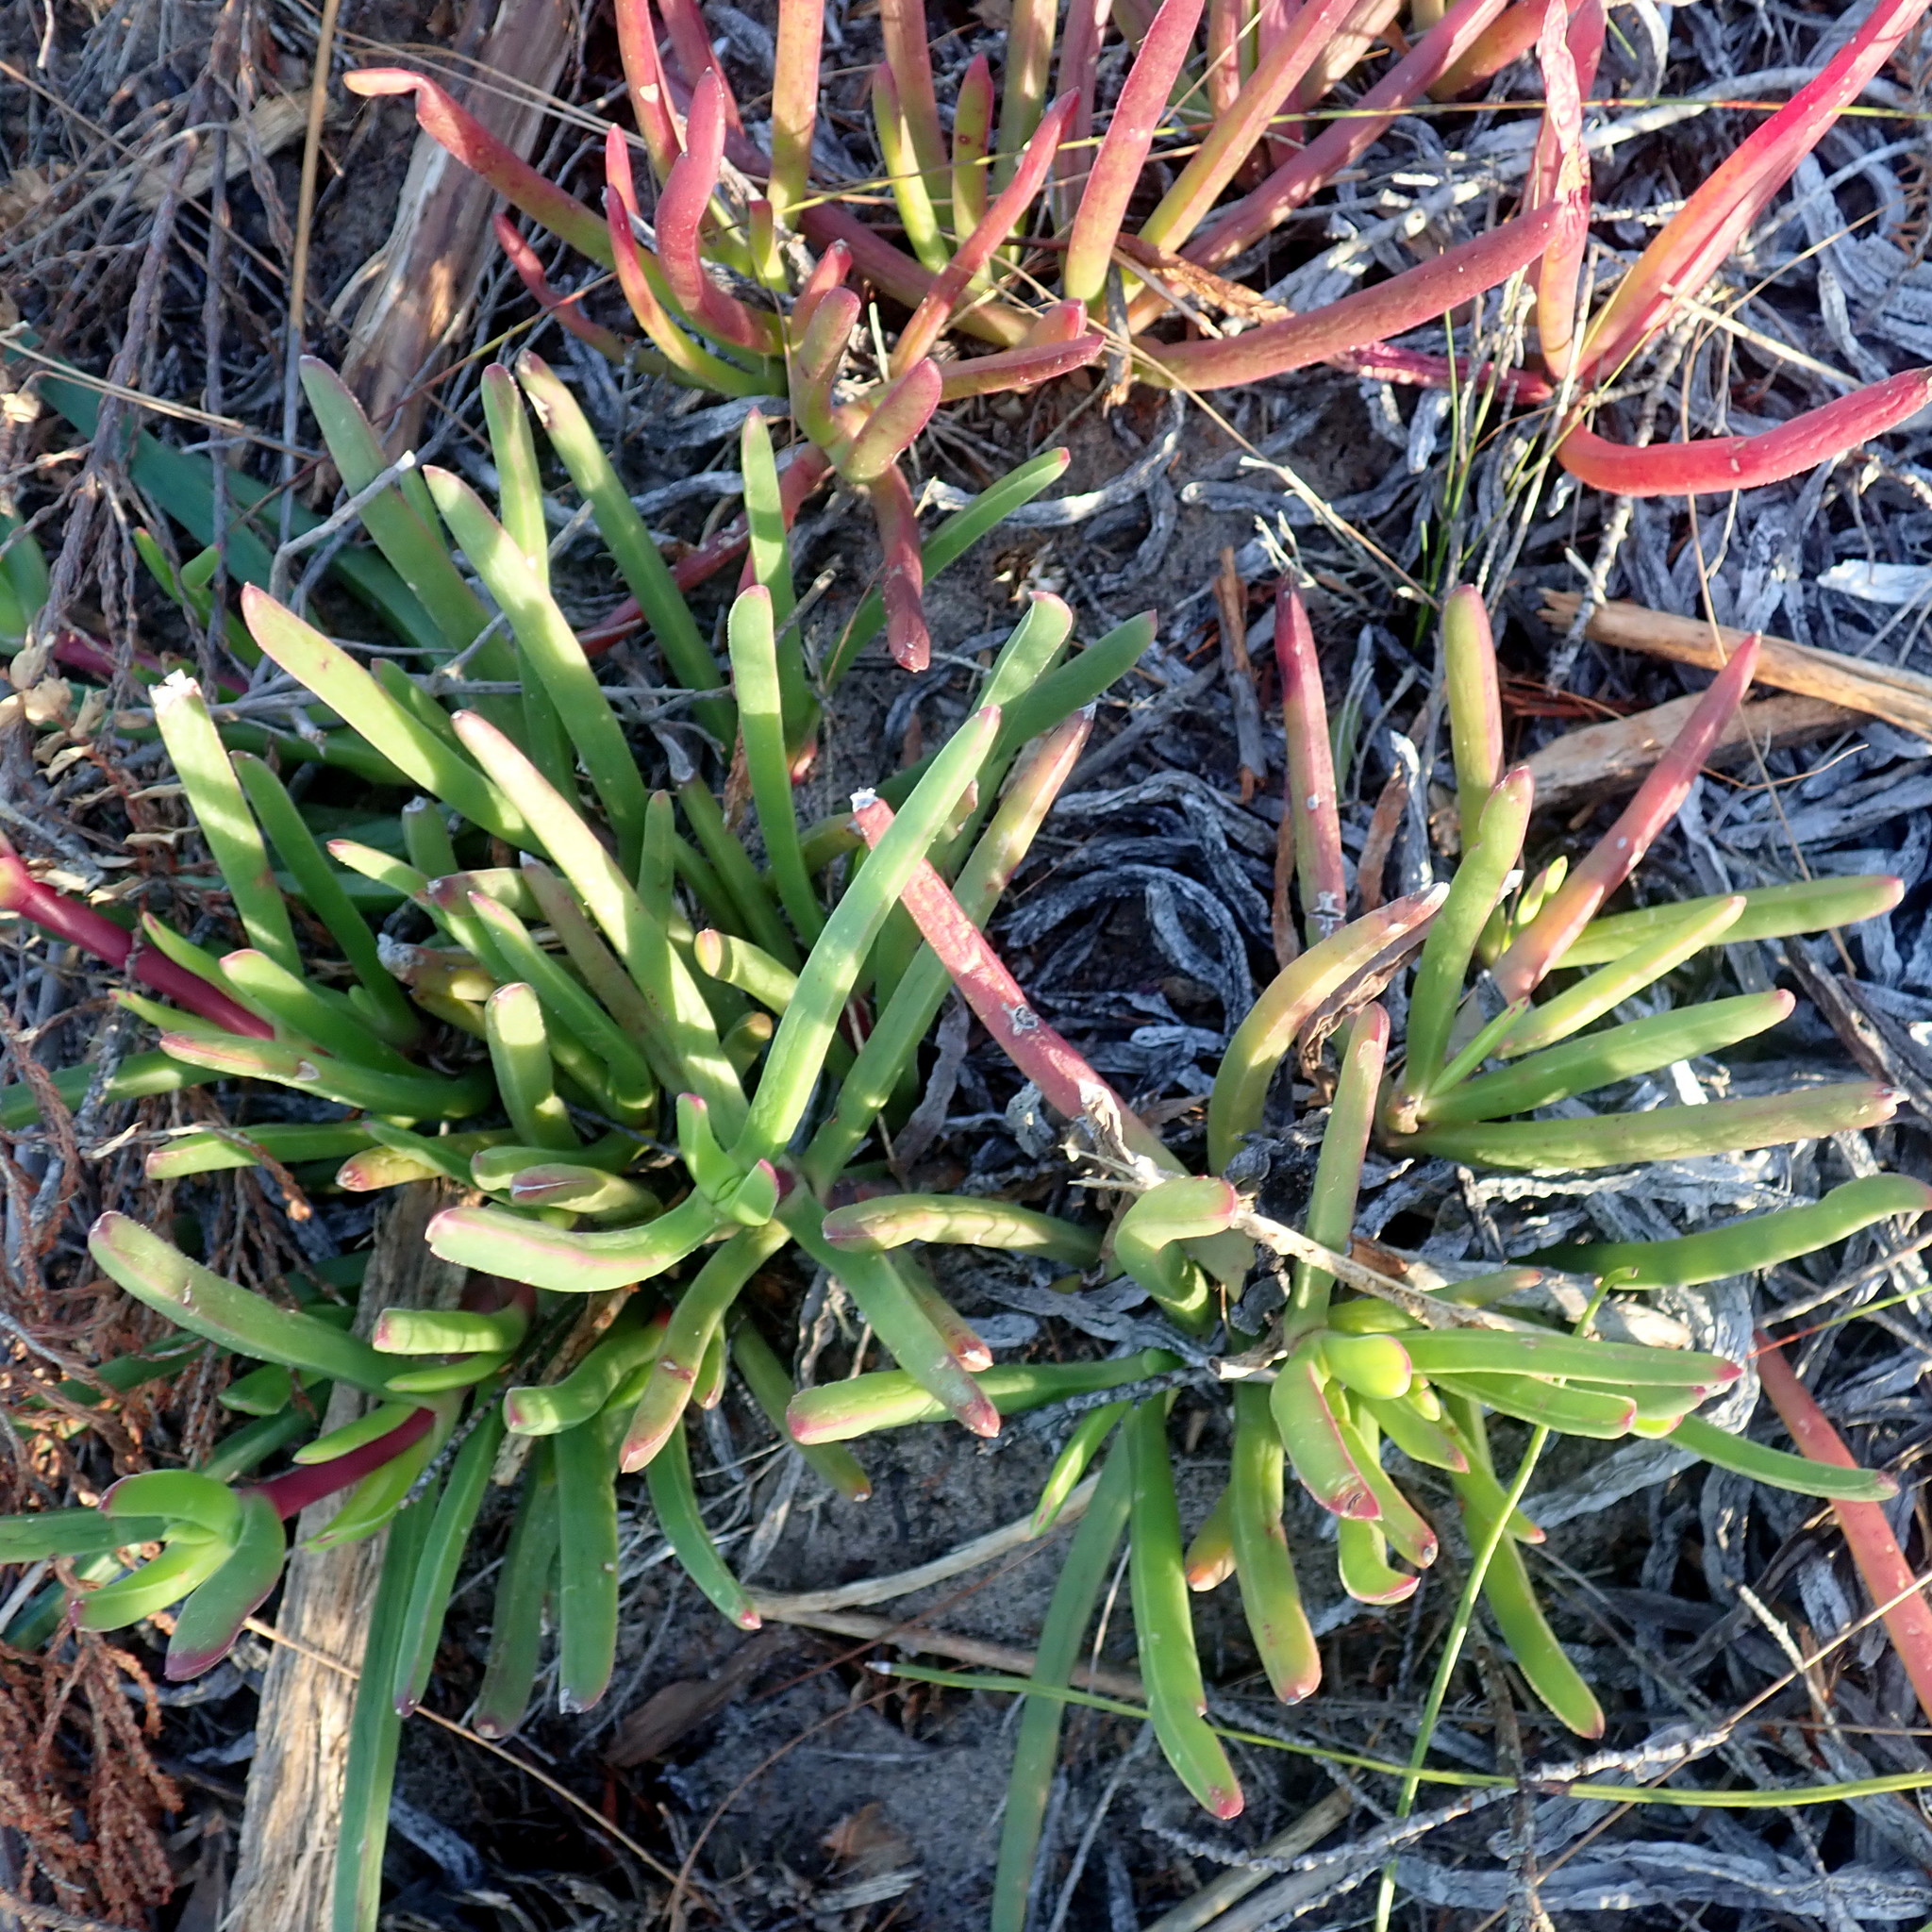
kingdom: Plantae
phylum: Tracheophyta
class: Magnoliopsida
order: Caryophyllales
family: Aizoaceae
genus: Carpobrotus
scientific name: Carpobrotus muirii
